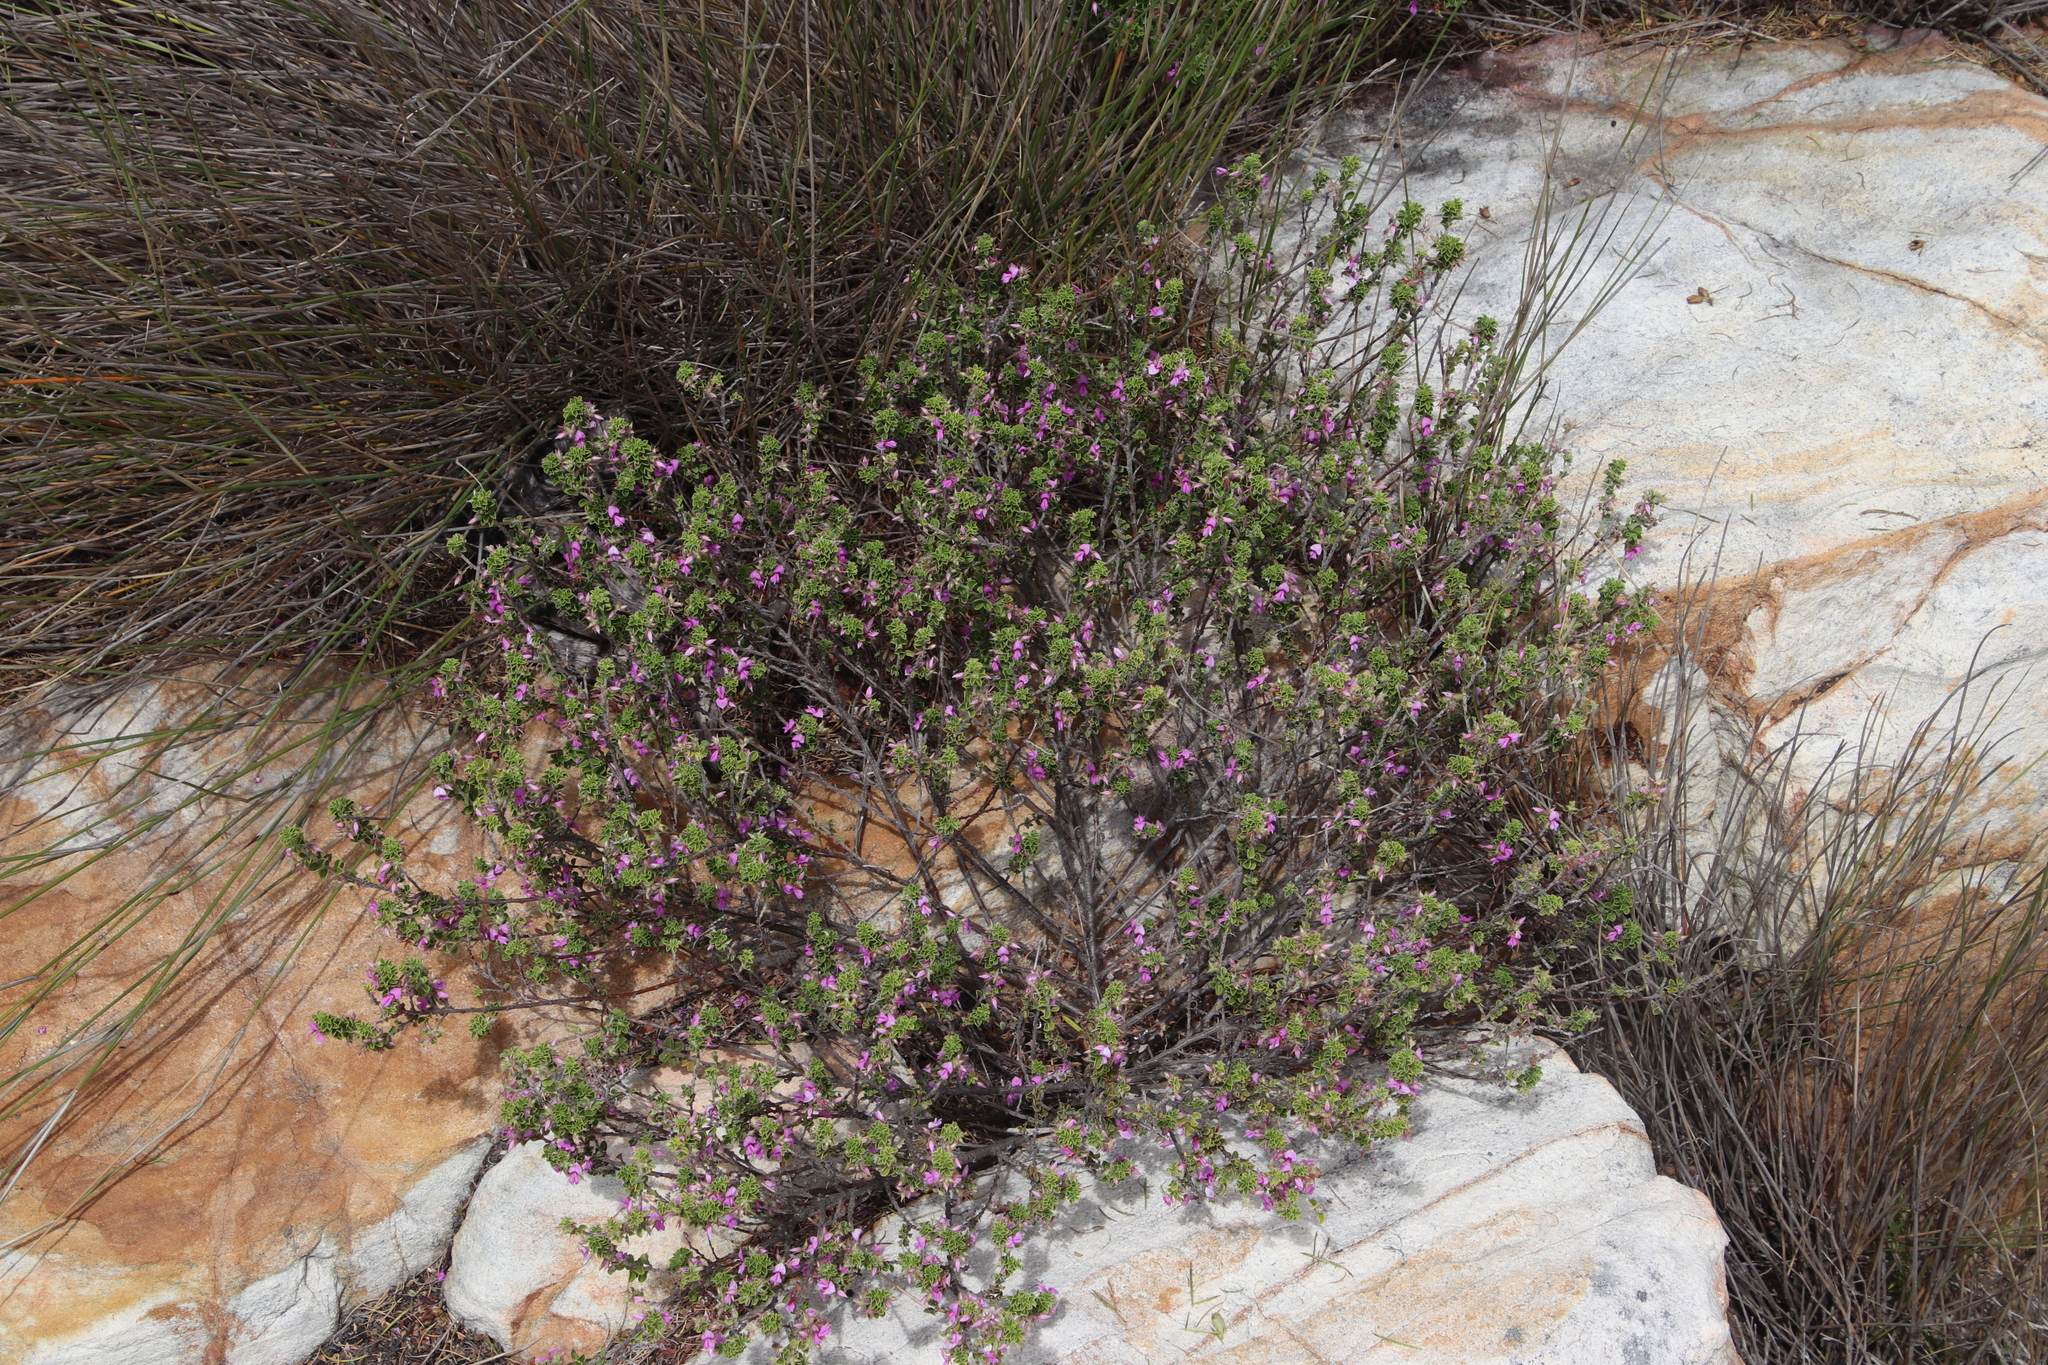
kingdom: Plantae
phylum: Tracheophyta
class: Magnoliopsida
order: Fabales
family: Fabaceae
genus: Indigofera
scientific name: Indigofera candolleana
